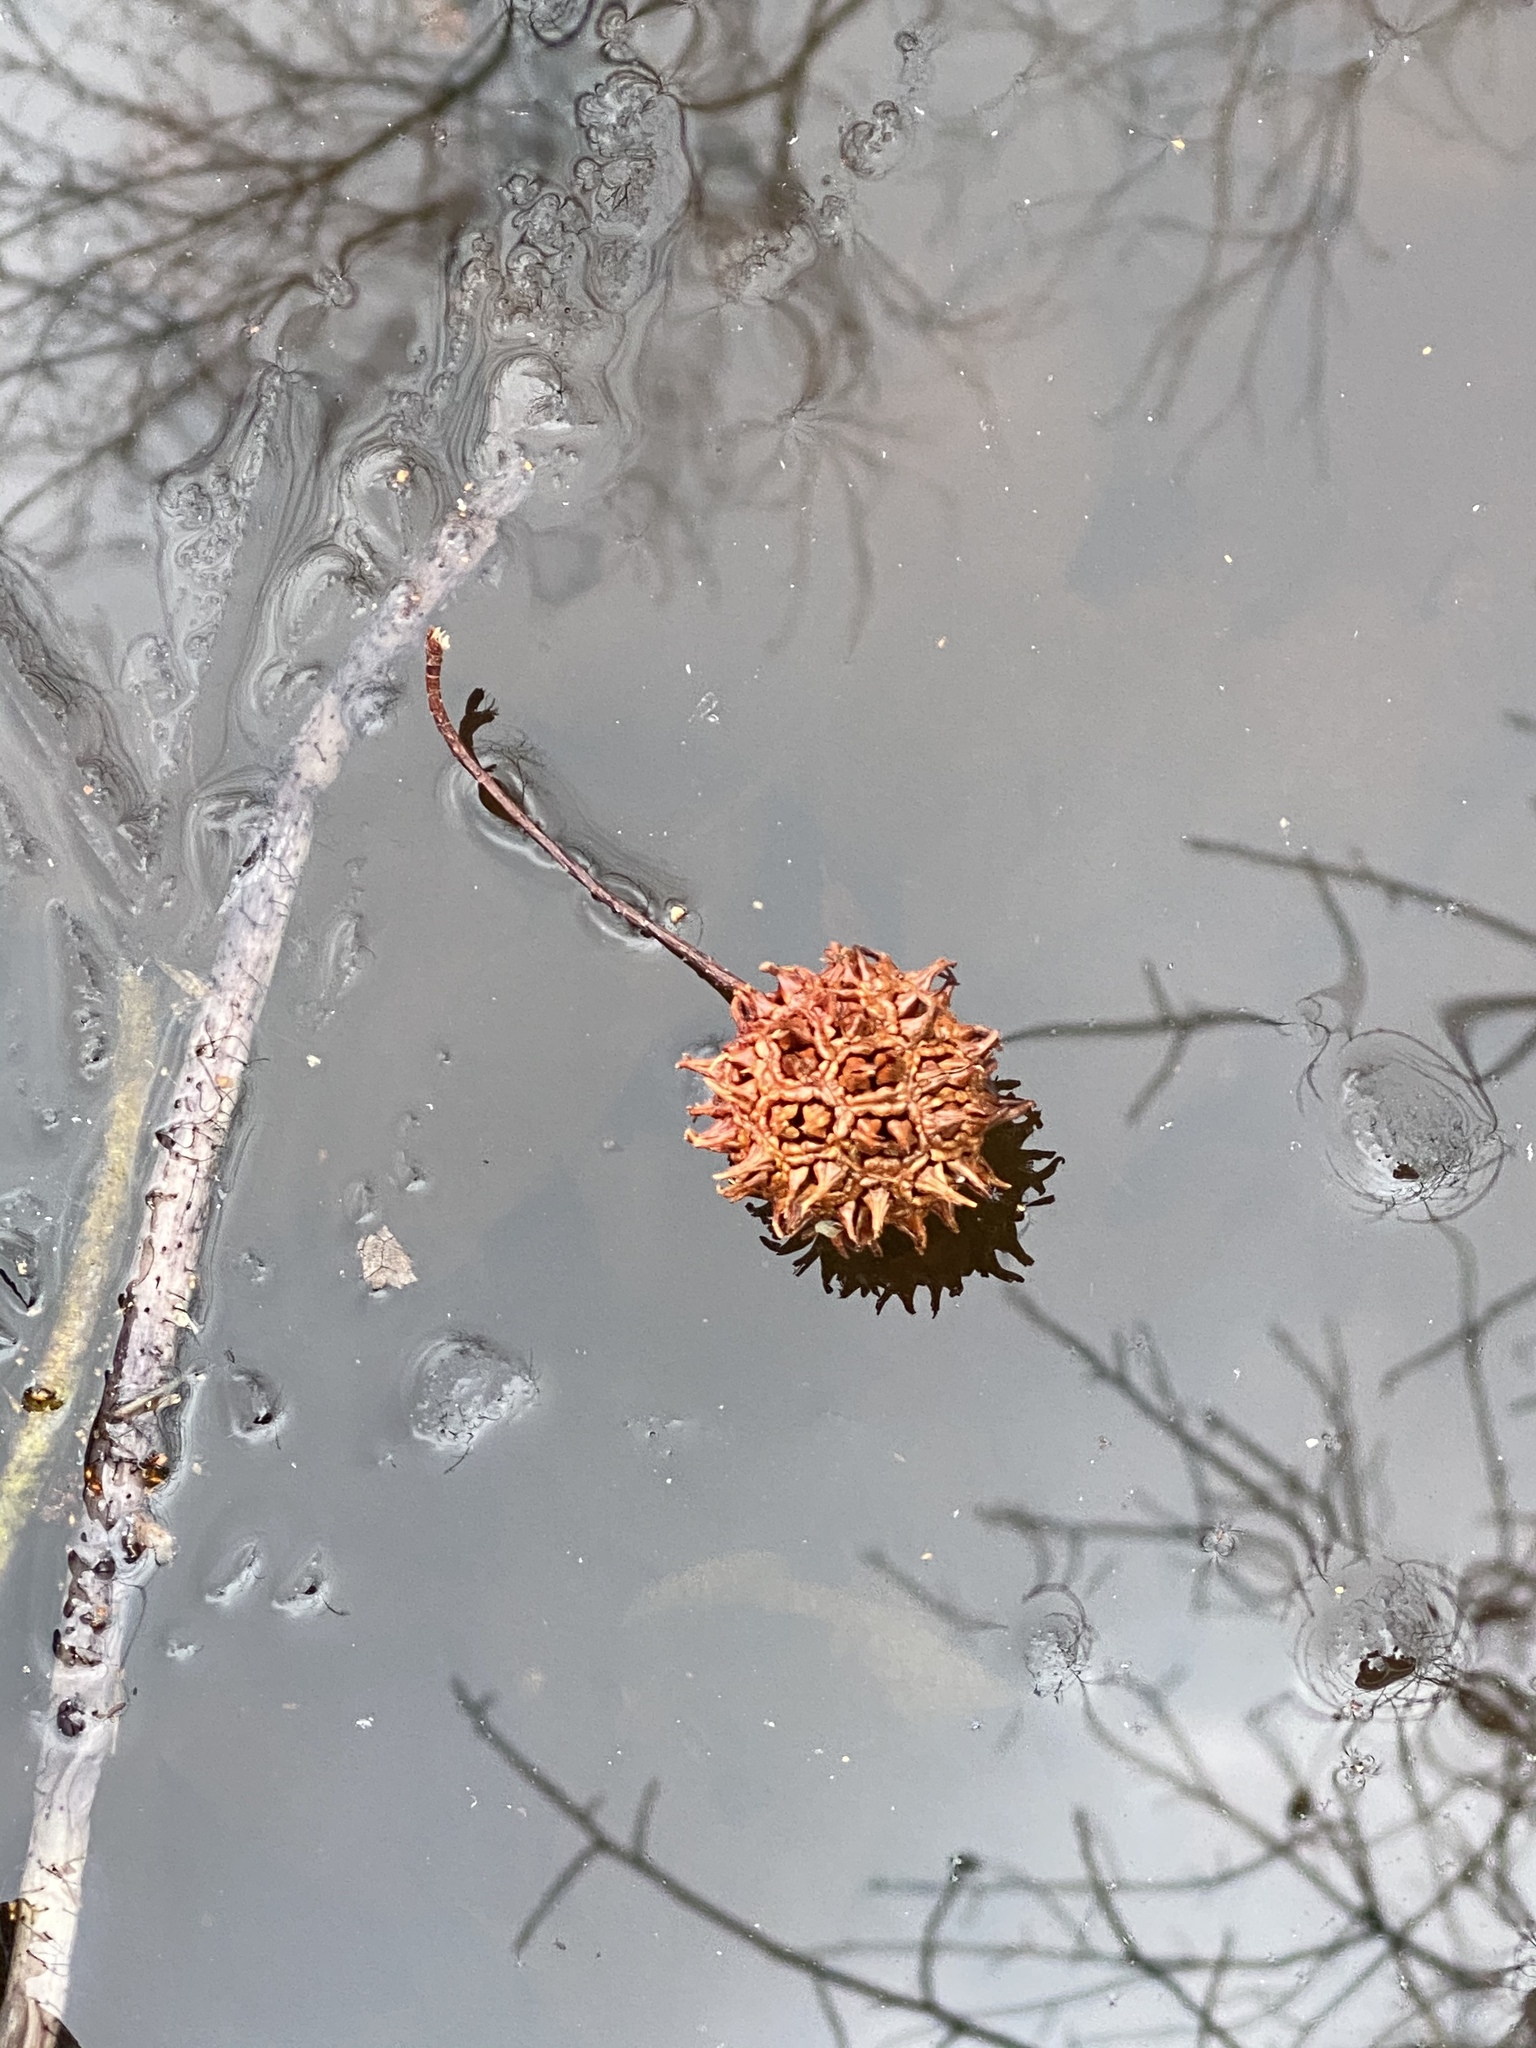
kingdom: Plantae
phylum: Tracheophyta
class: Magnoliopsida
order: Saxifragales
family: Altingiaceae
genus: Liquidambar
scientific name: Liquidambar styraciflua
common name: Sweet gum
